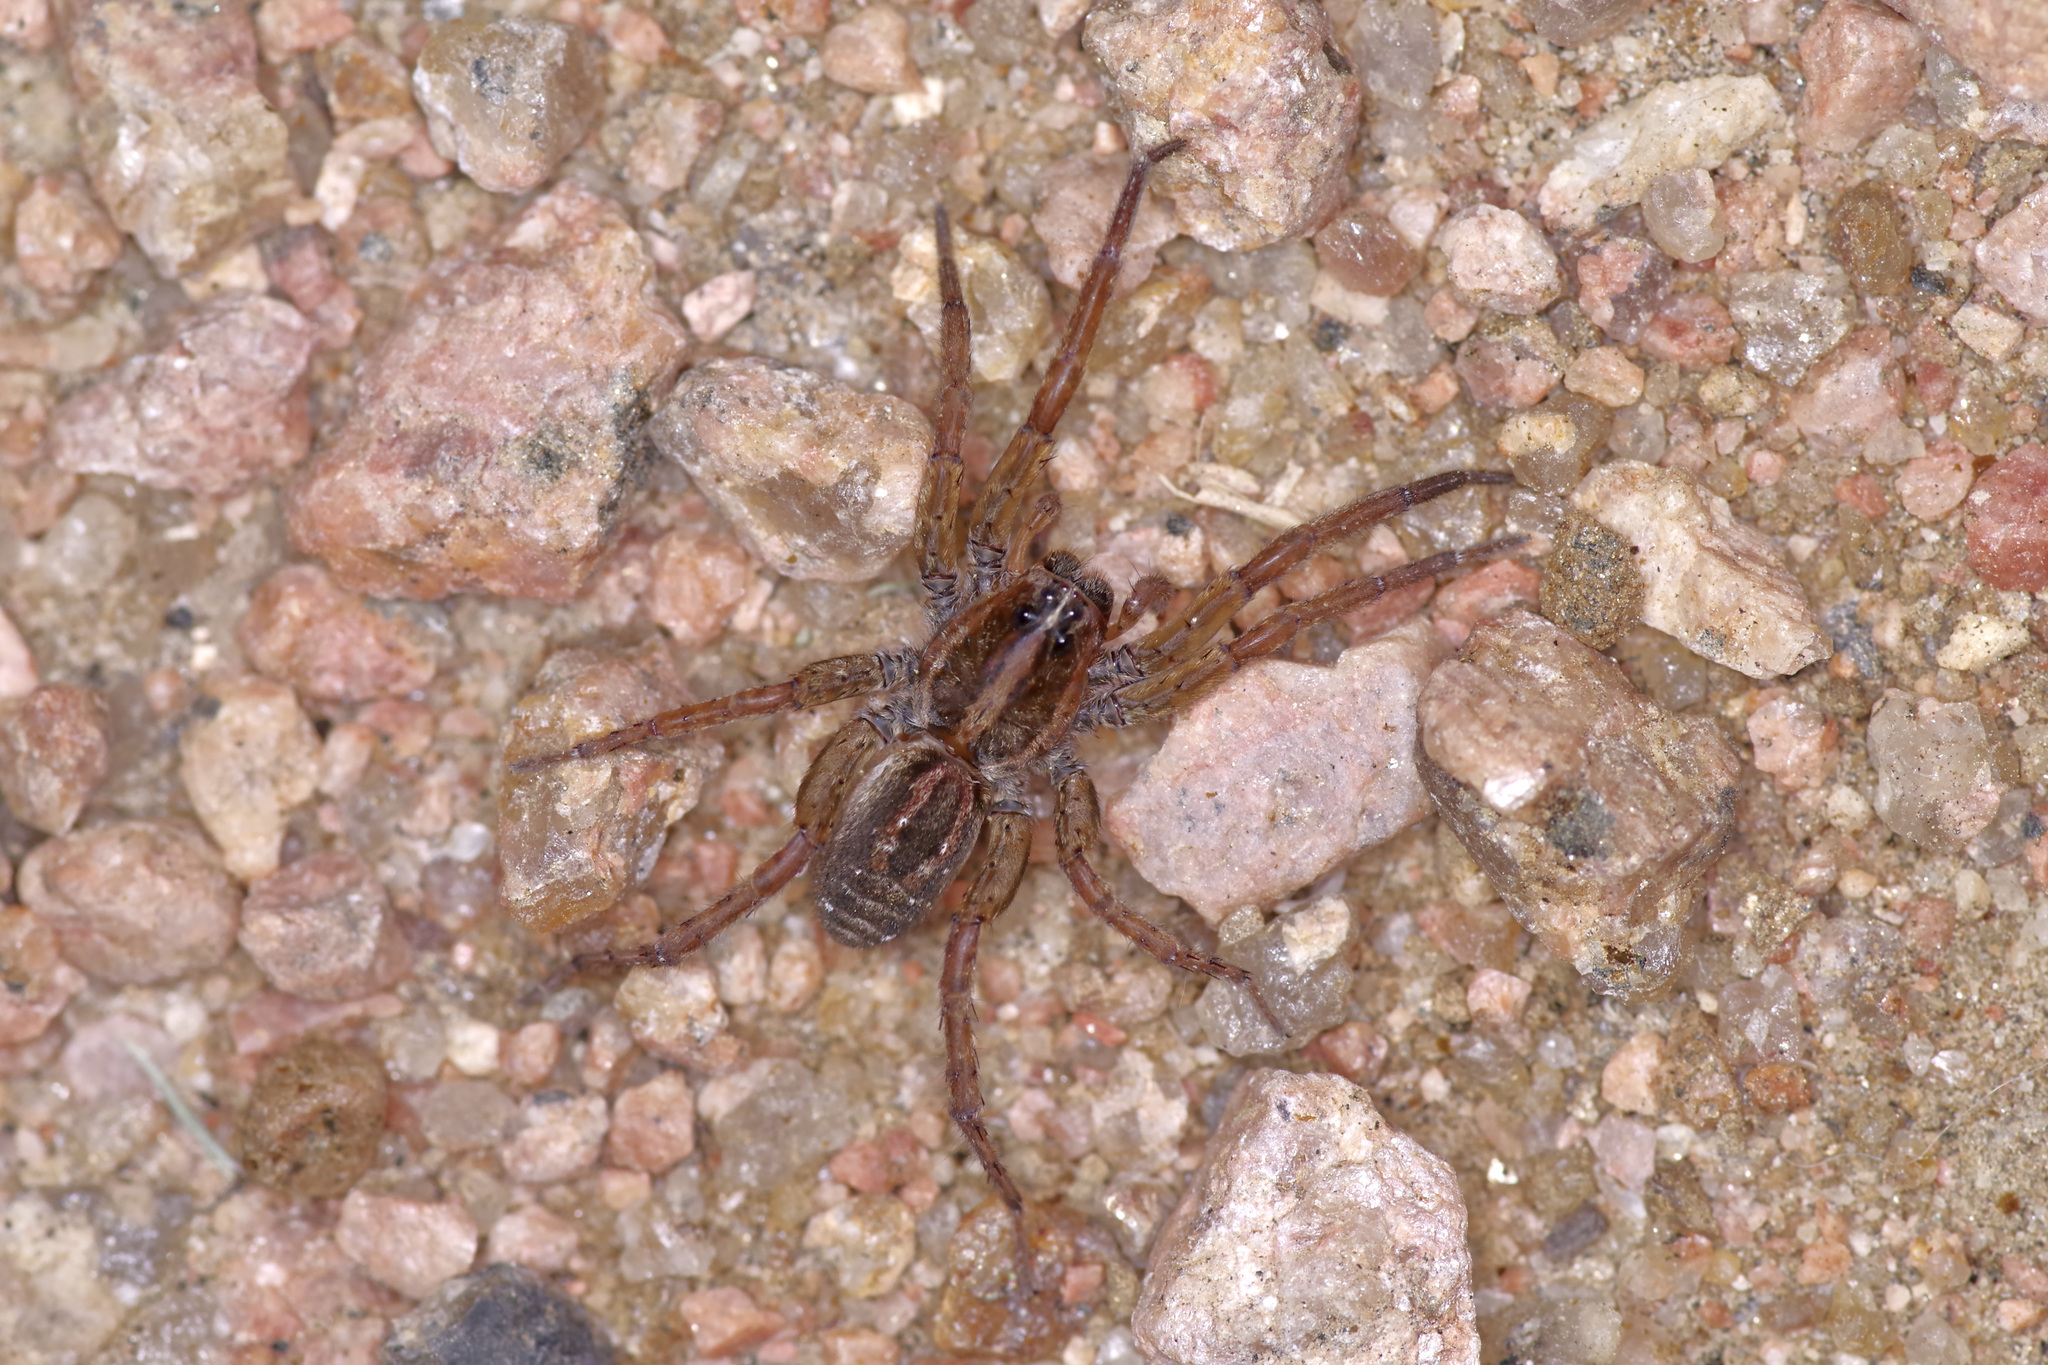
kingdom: Animalia
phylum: Arthropoda
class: Arachnida
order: Araneae
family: Lycosidae
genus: Tigrosa
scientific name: Tigrosa annexa
